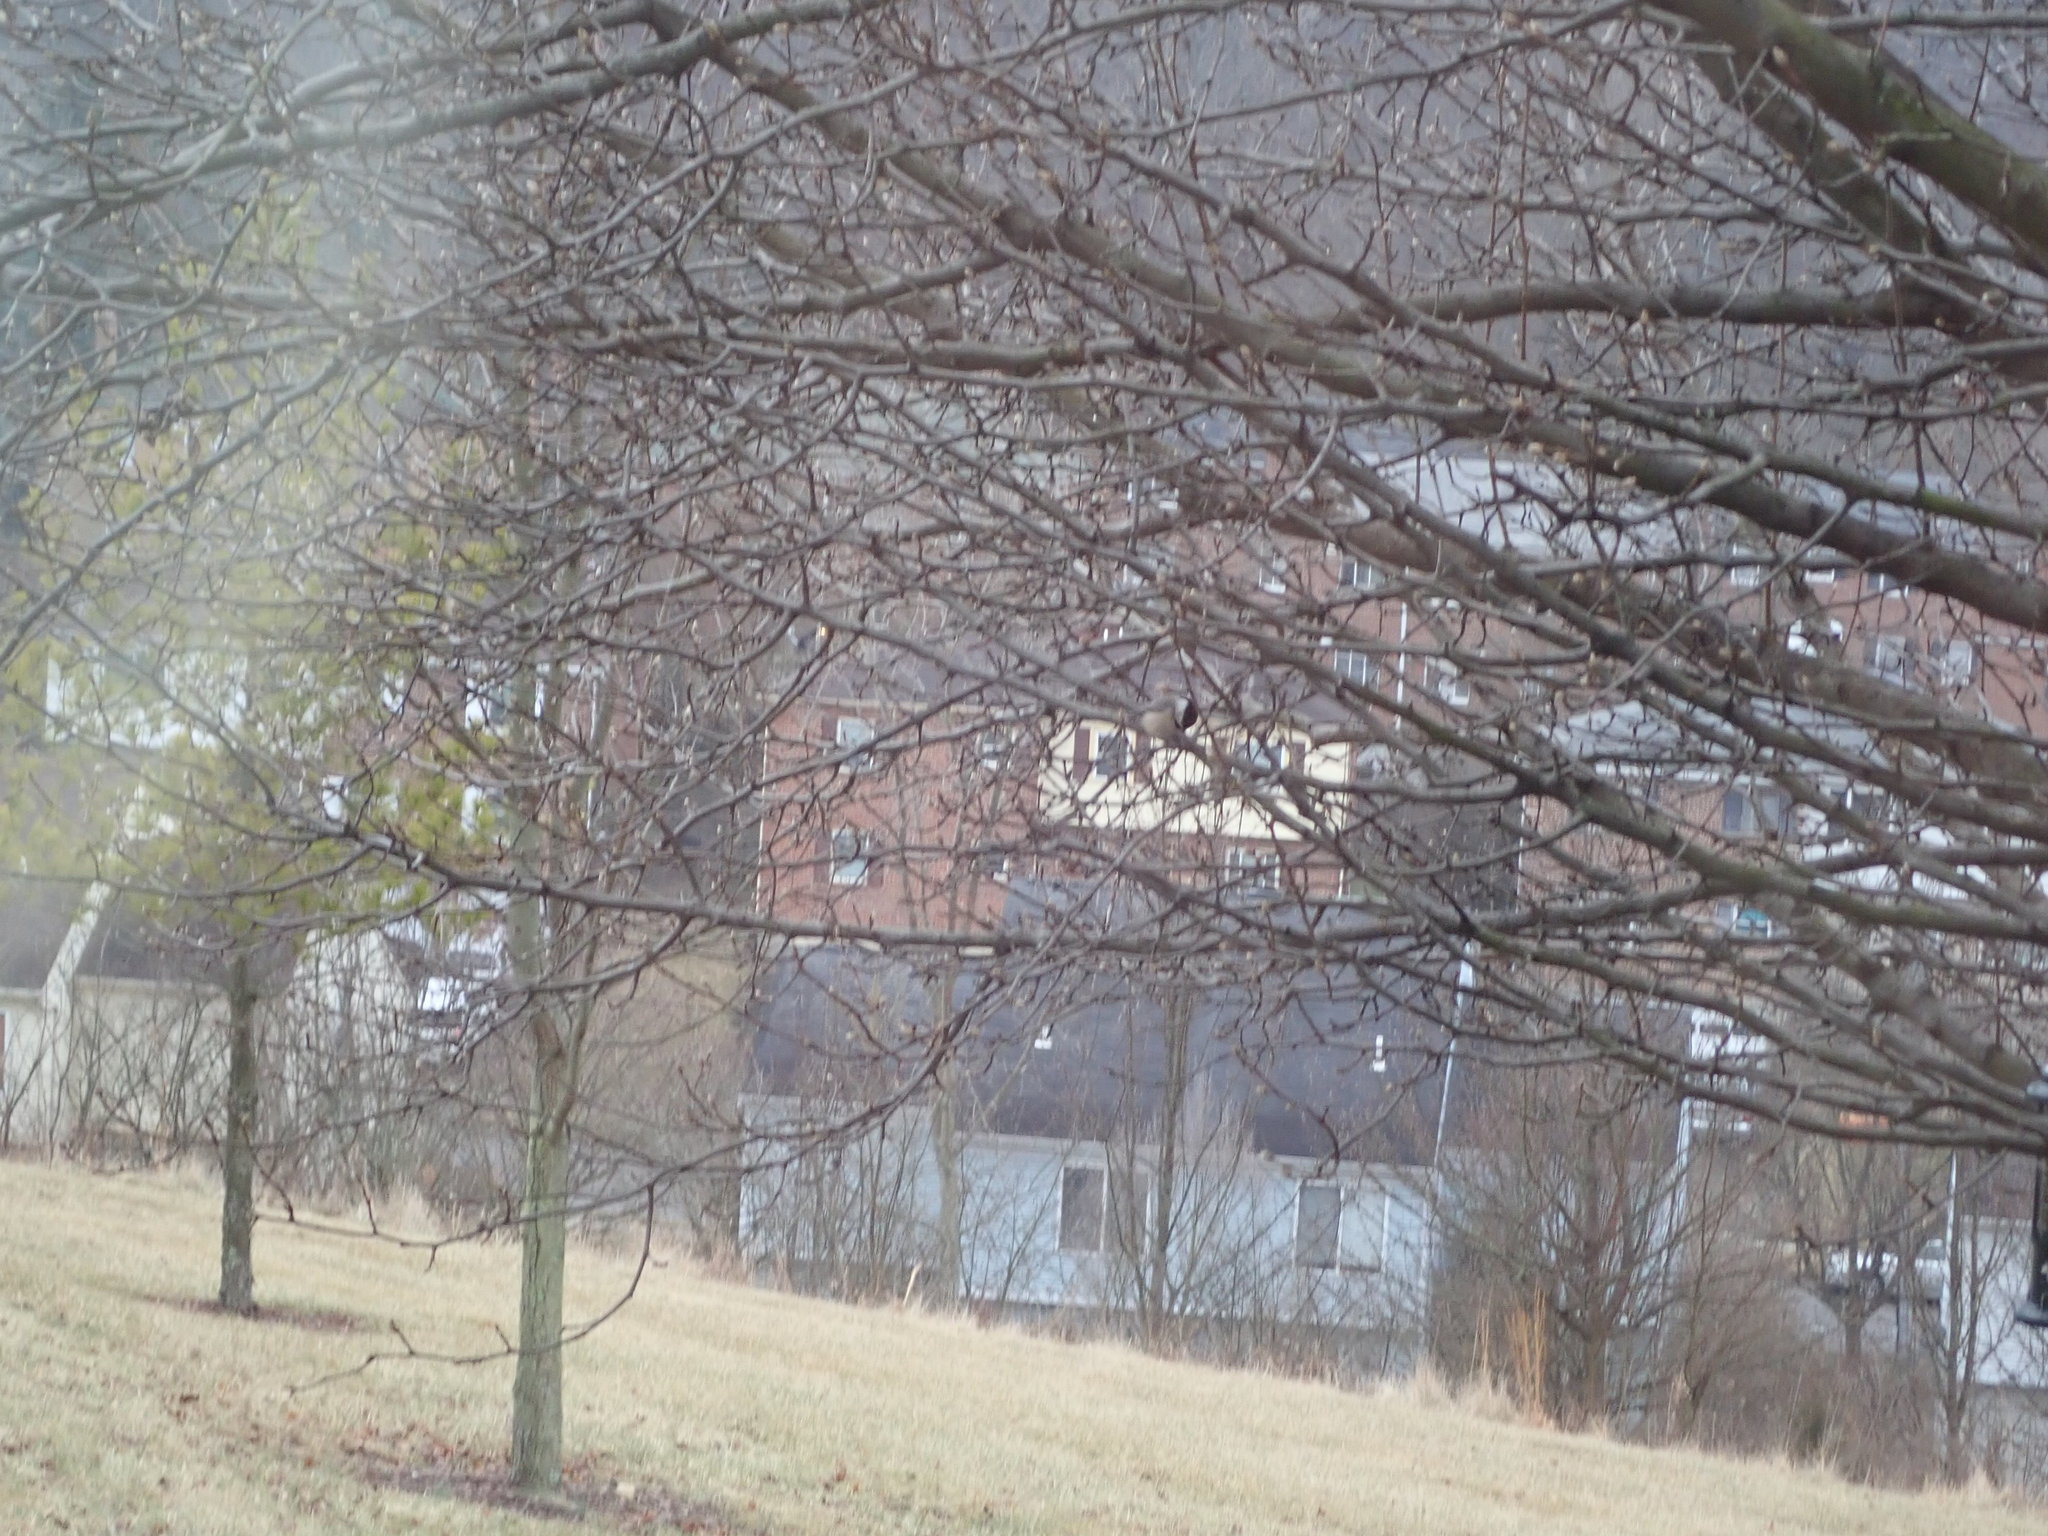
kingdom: Animalia
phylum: Chordata
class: Aves
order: Passeriformes
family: Paridae
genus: Poecile
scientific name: Poecile carolinensis
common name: Carolina chickadee
